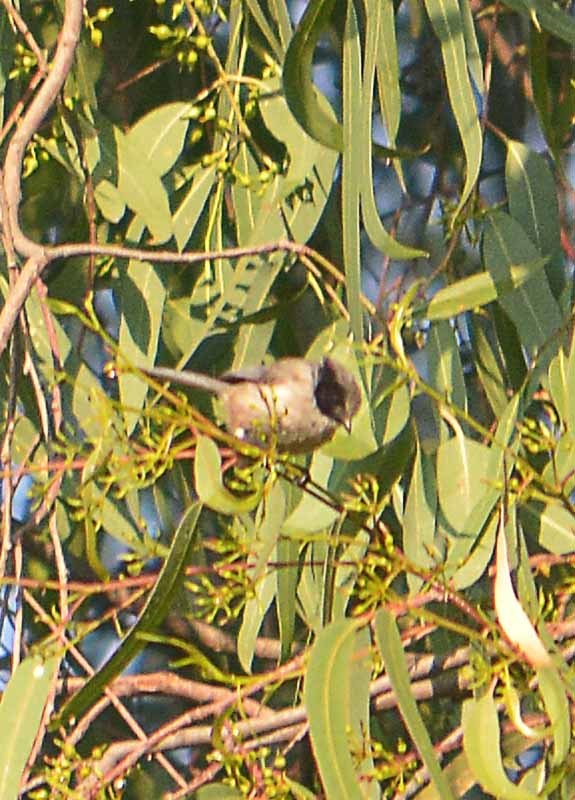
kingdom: Animalia
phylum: Chordata
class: Aves
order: Passeriformes
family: Aegithalidae
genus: Psaltriparus
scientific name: Psaltriparus minimus
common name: American bushtit
